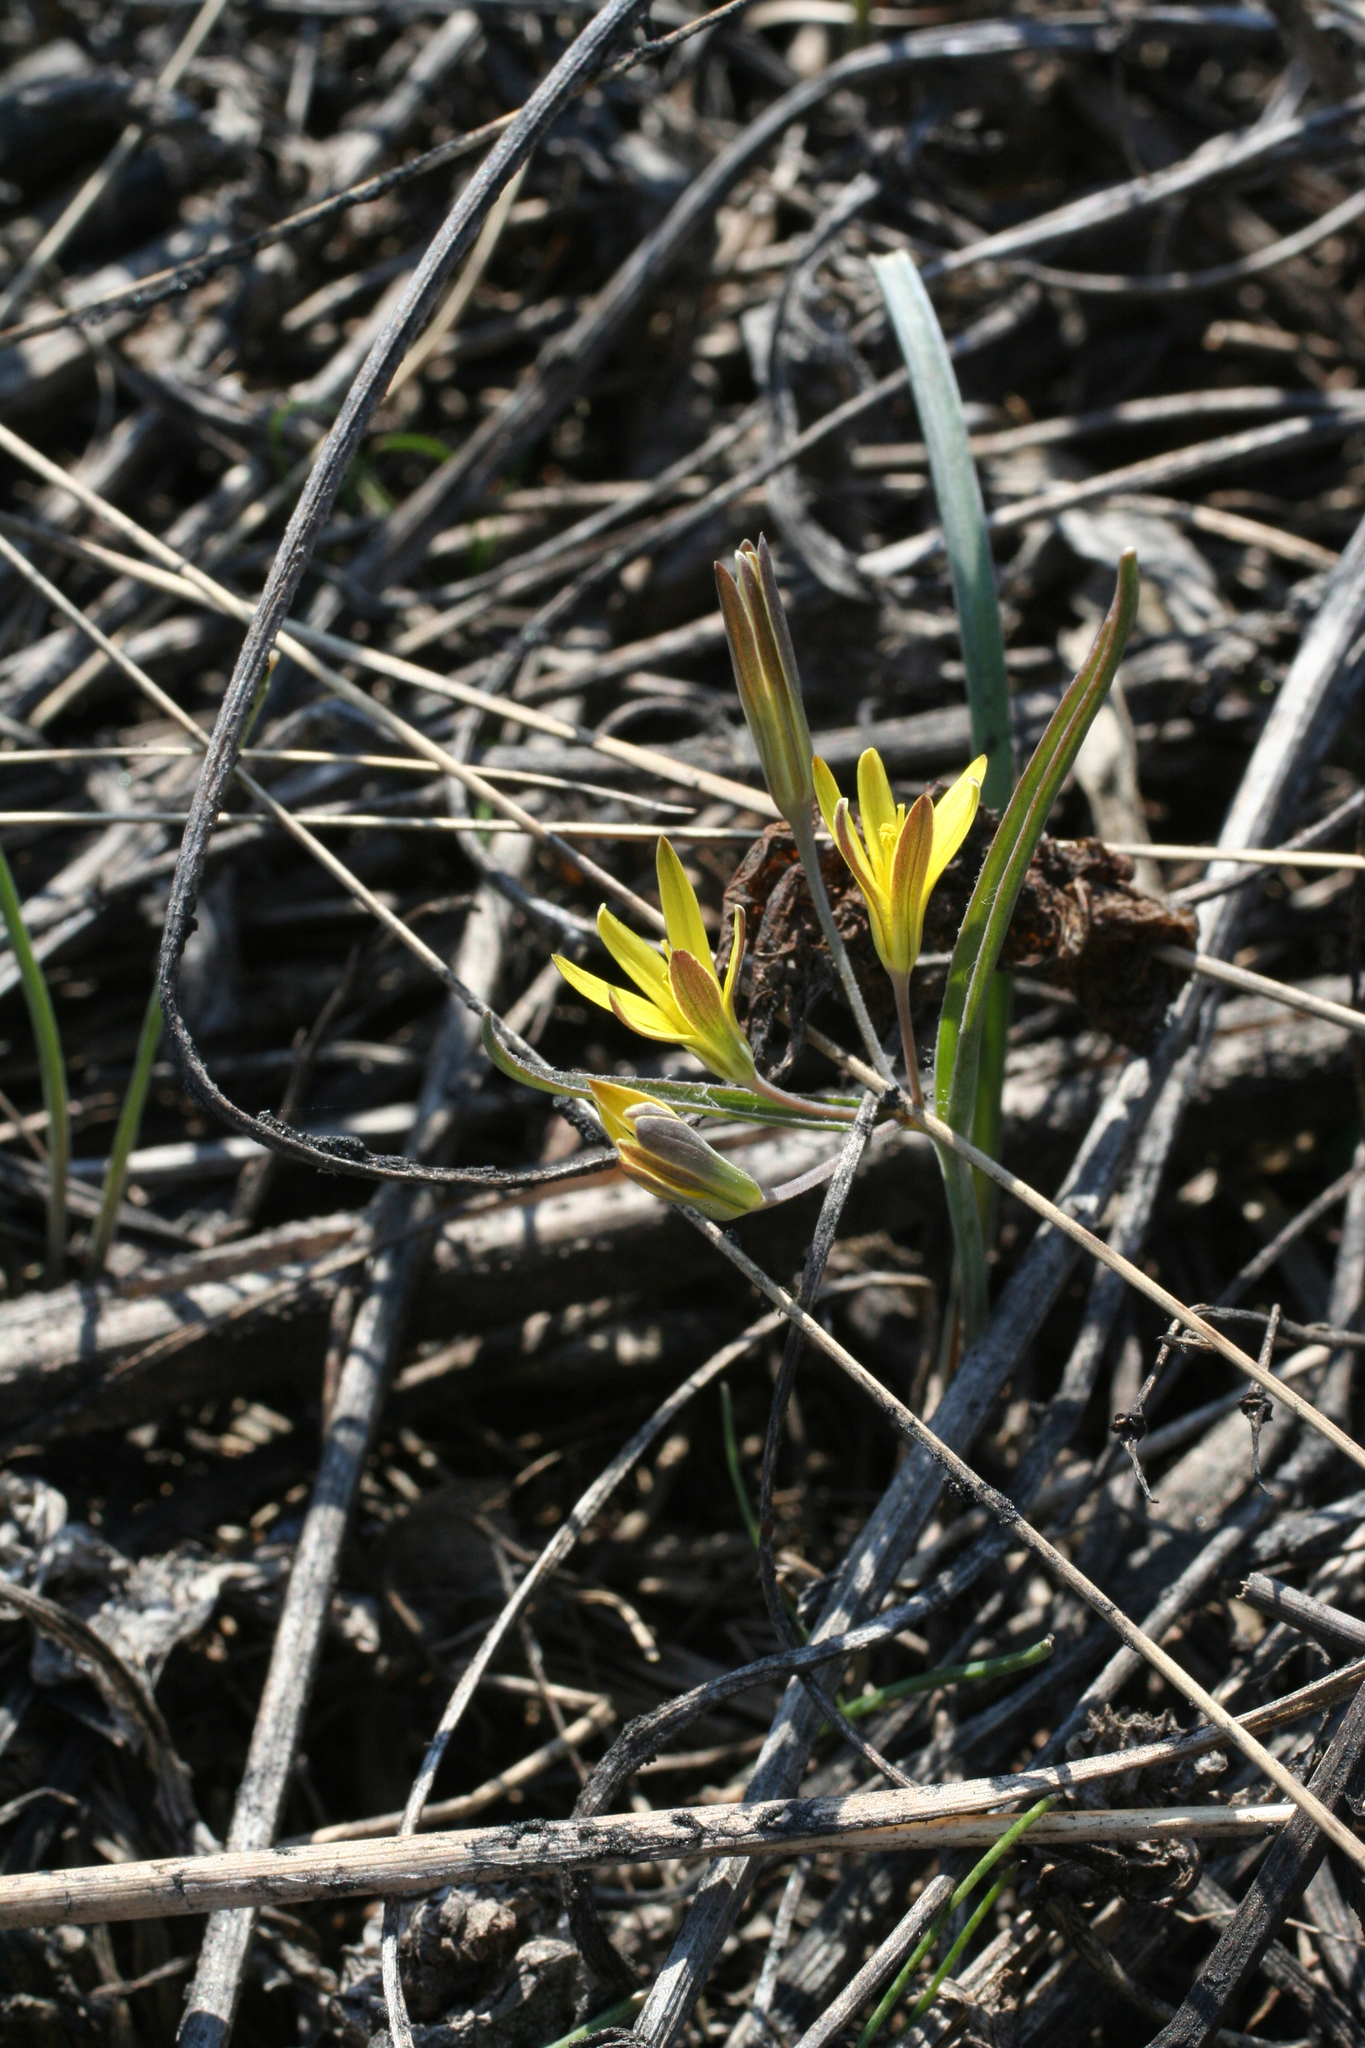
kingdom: Plantae
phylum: Tracheophyta
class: Liliopsida
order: Liliales
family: Liliaceae
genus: Gagea
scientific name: Gagea fedtschenkoana
